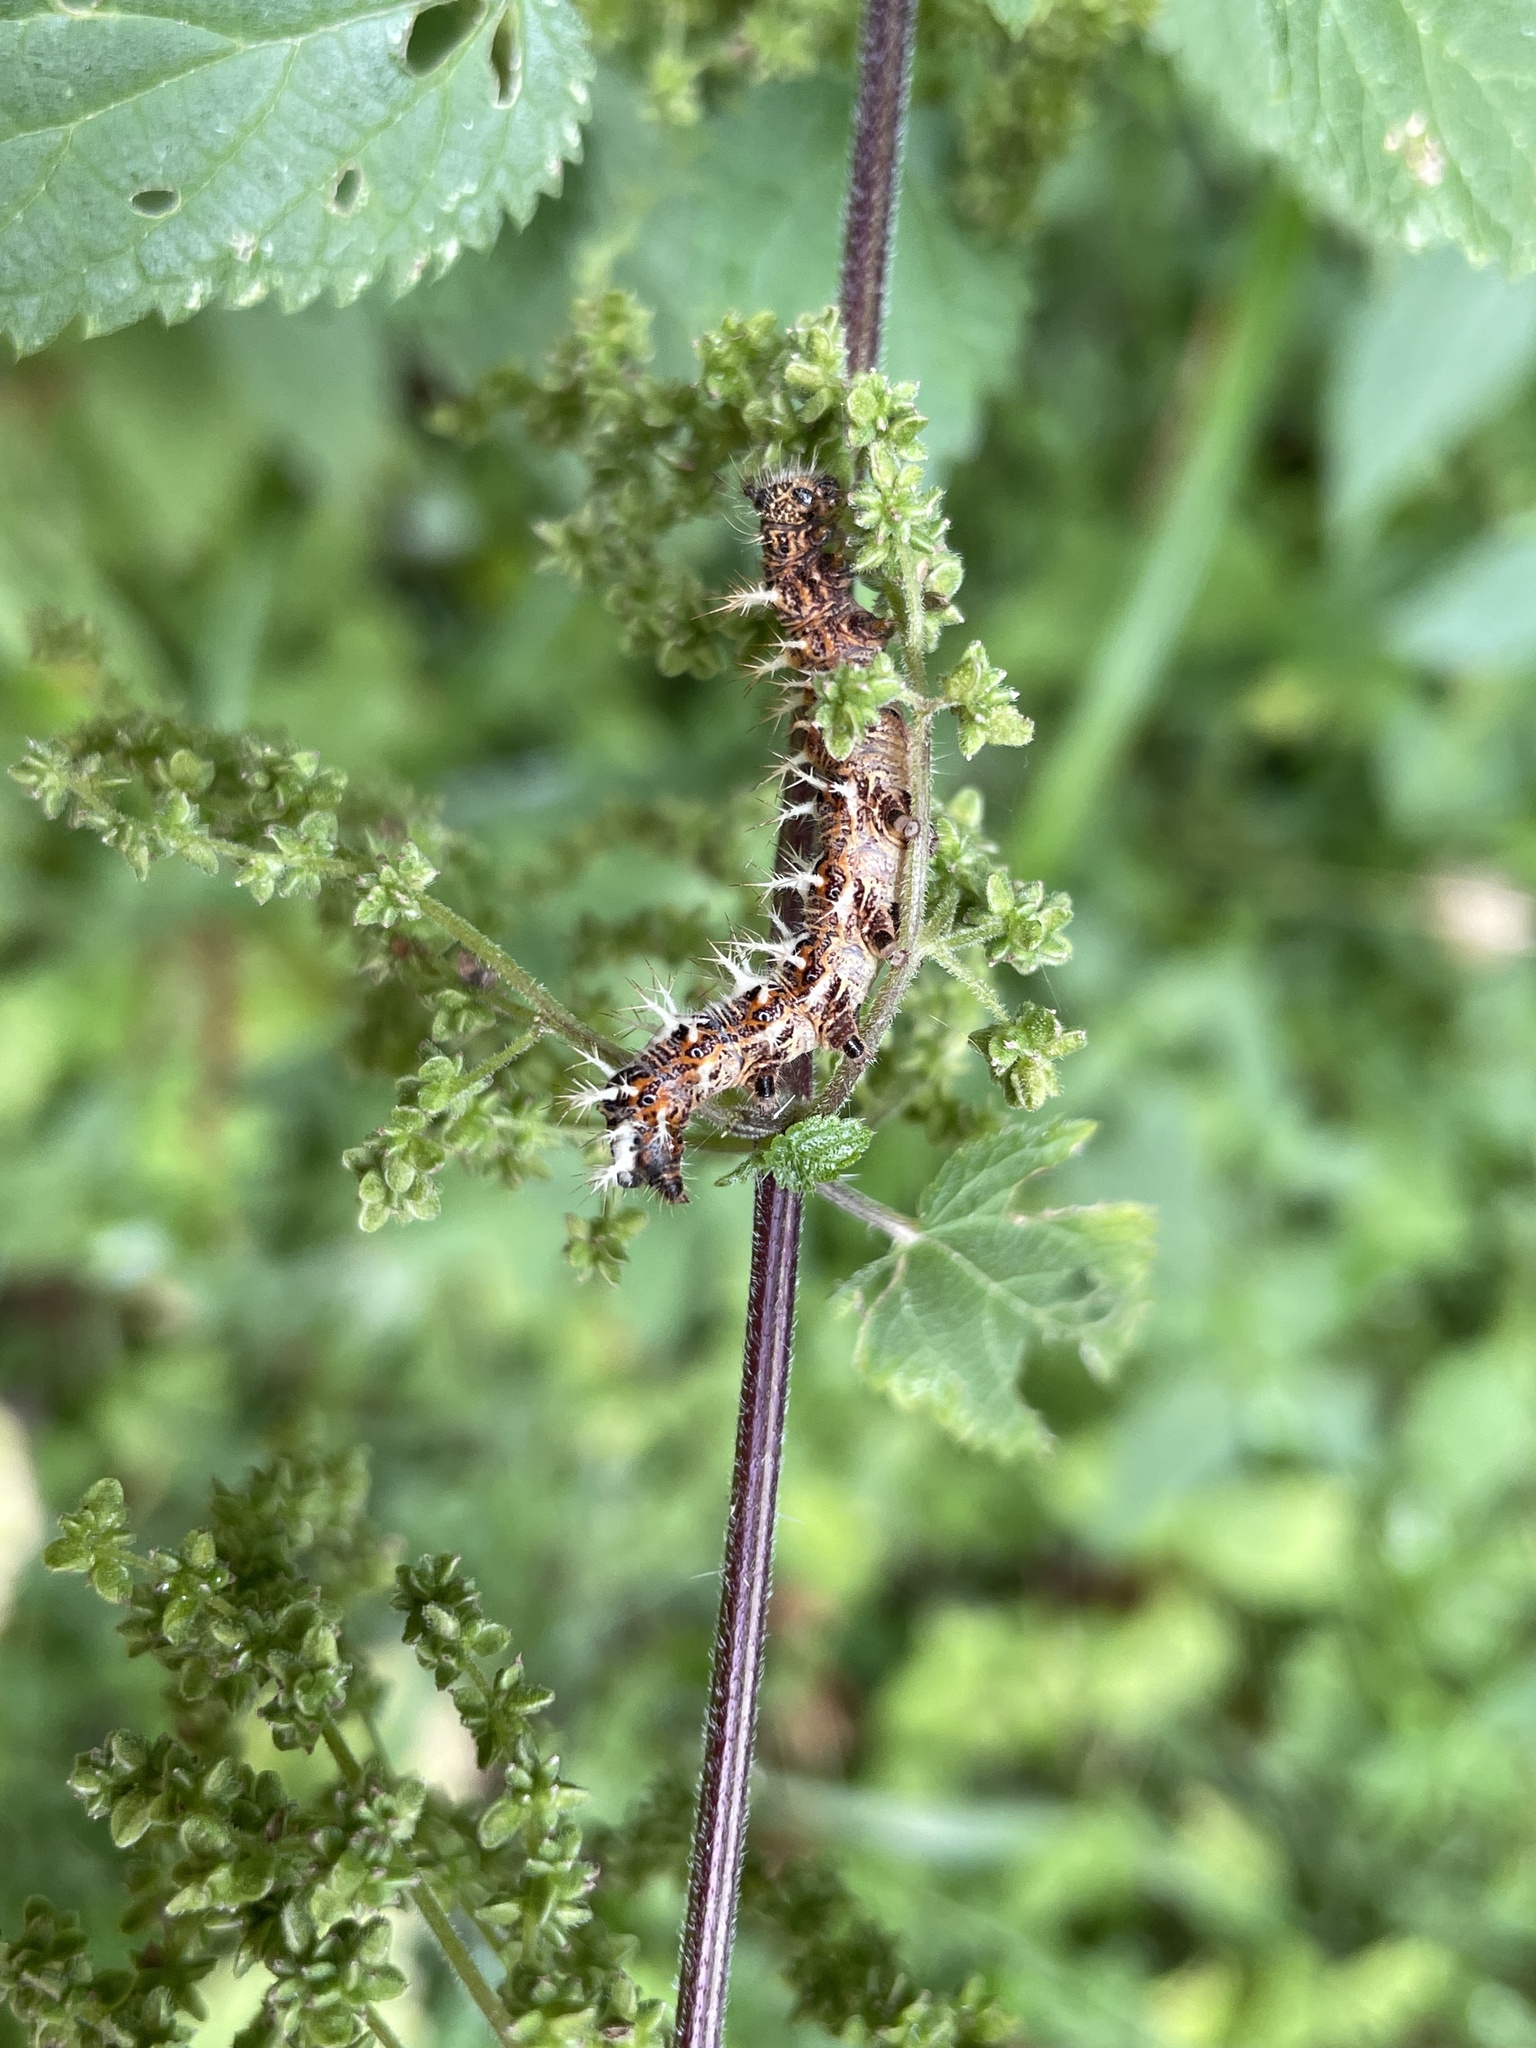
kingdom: Animalia
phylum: Arthropoda
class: Insecta
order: Lepidoptera
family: Nymphalidae
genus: Polygonia
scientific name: Polygonia c-album
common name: Comma
